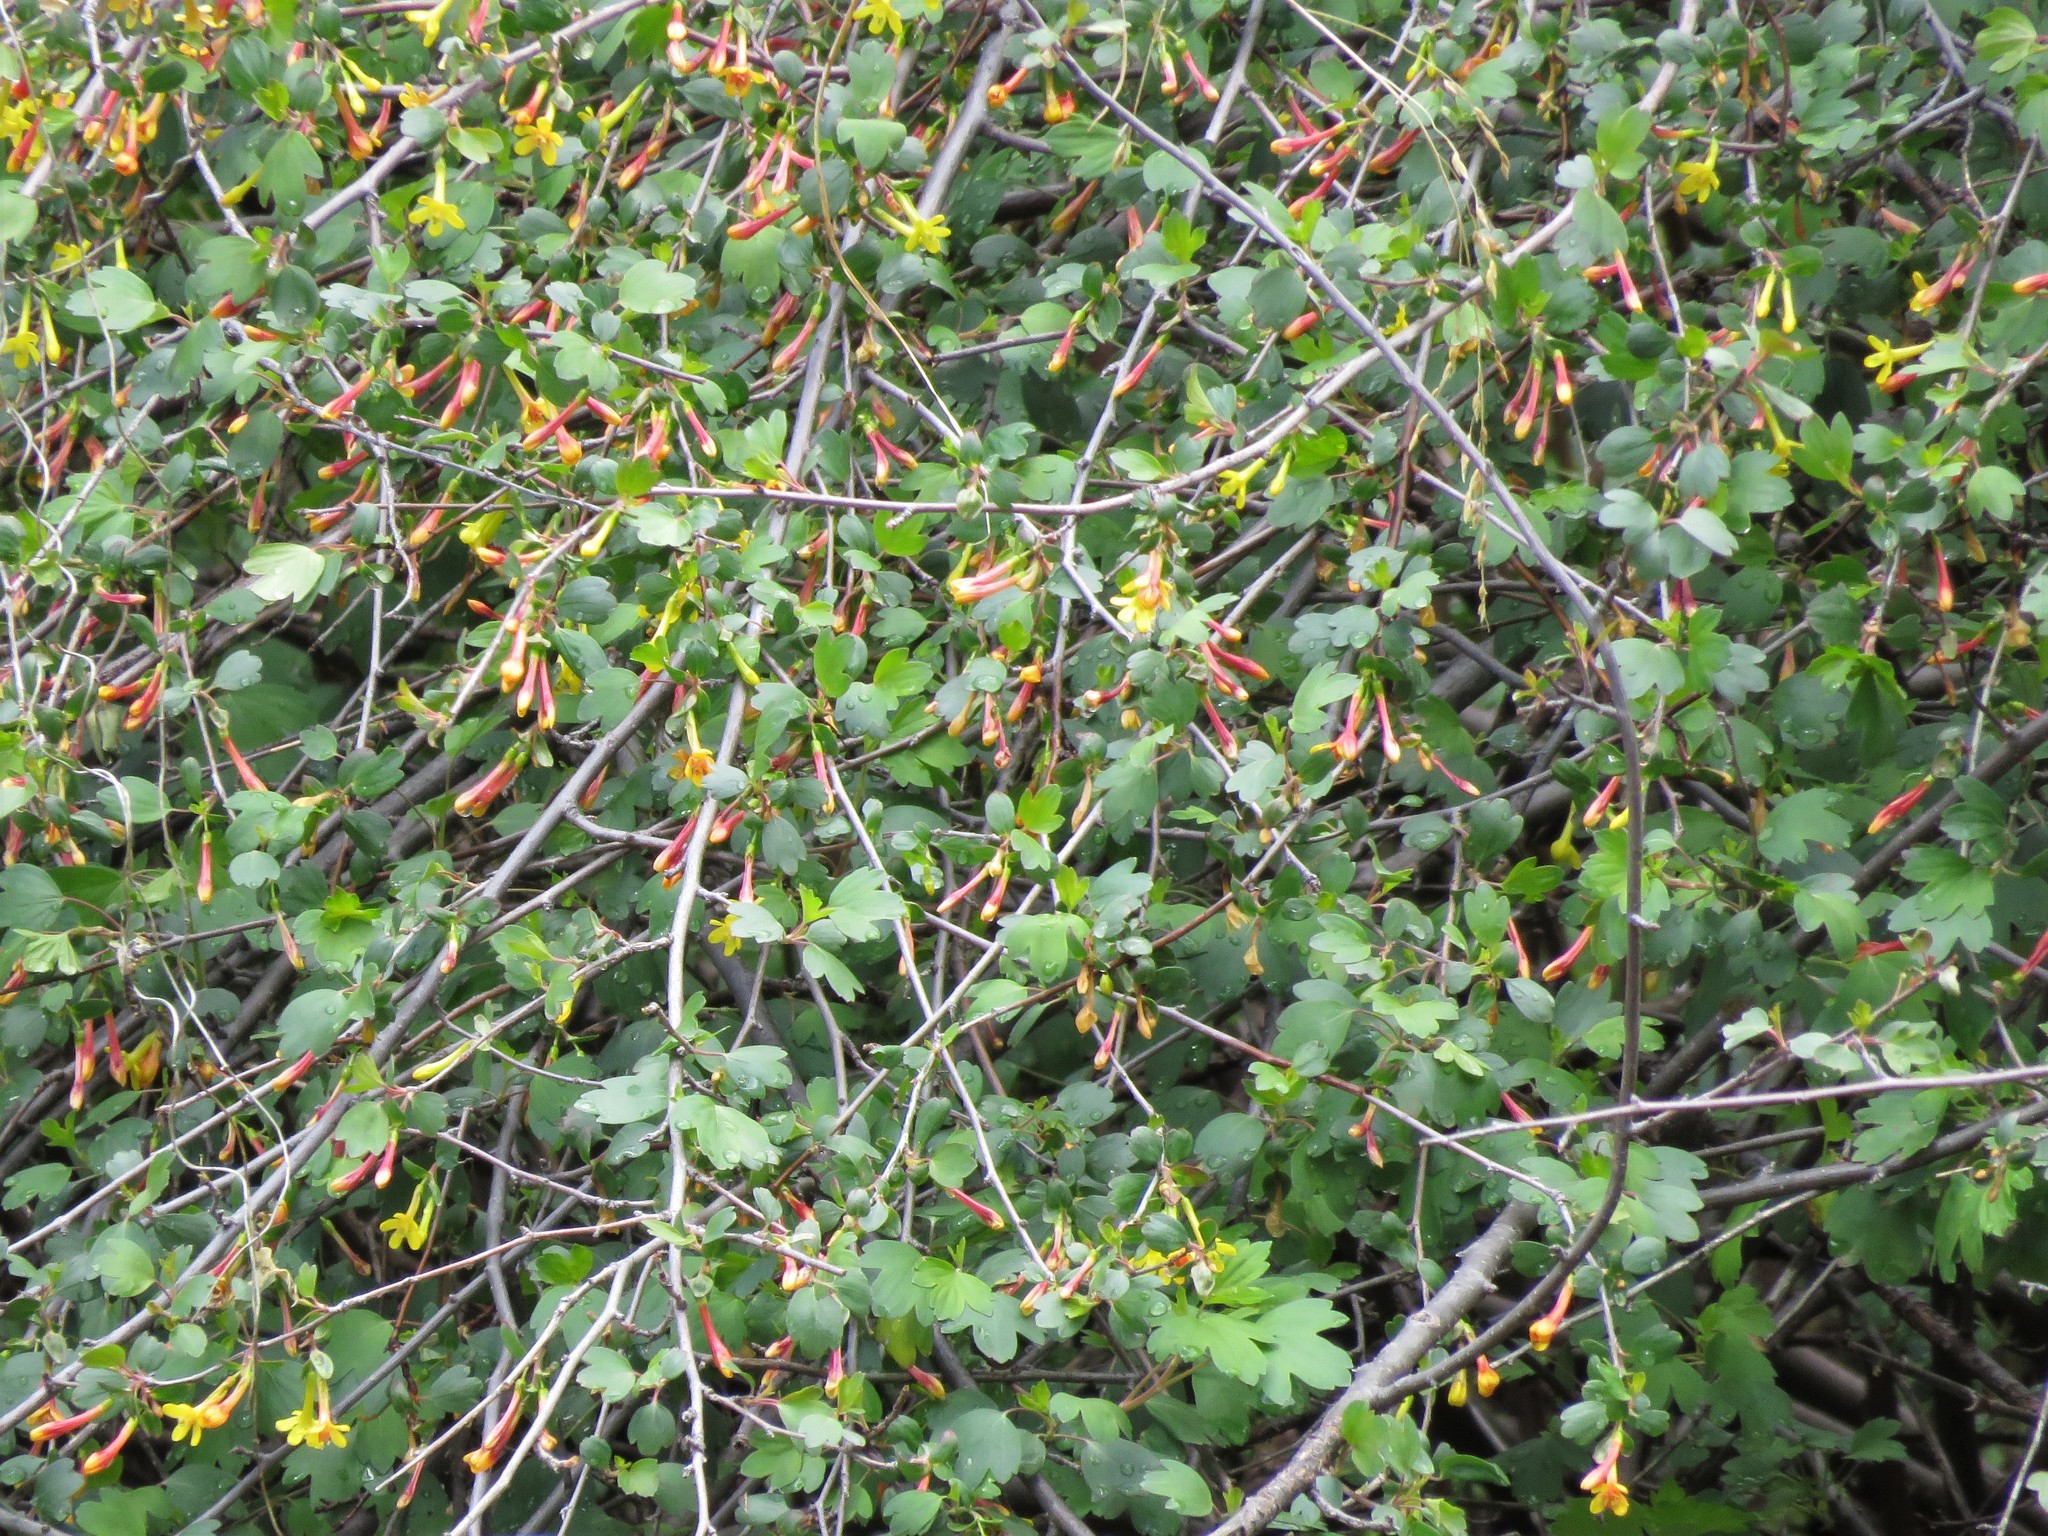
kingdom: Plantae
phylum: Tracheophyta
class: Magnoliopsida
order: Saxifragales
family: Grossulariaceae
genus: Ribes
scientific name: Ribes aureum
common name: Golden currant
